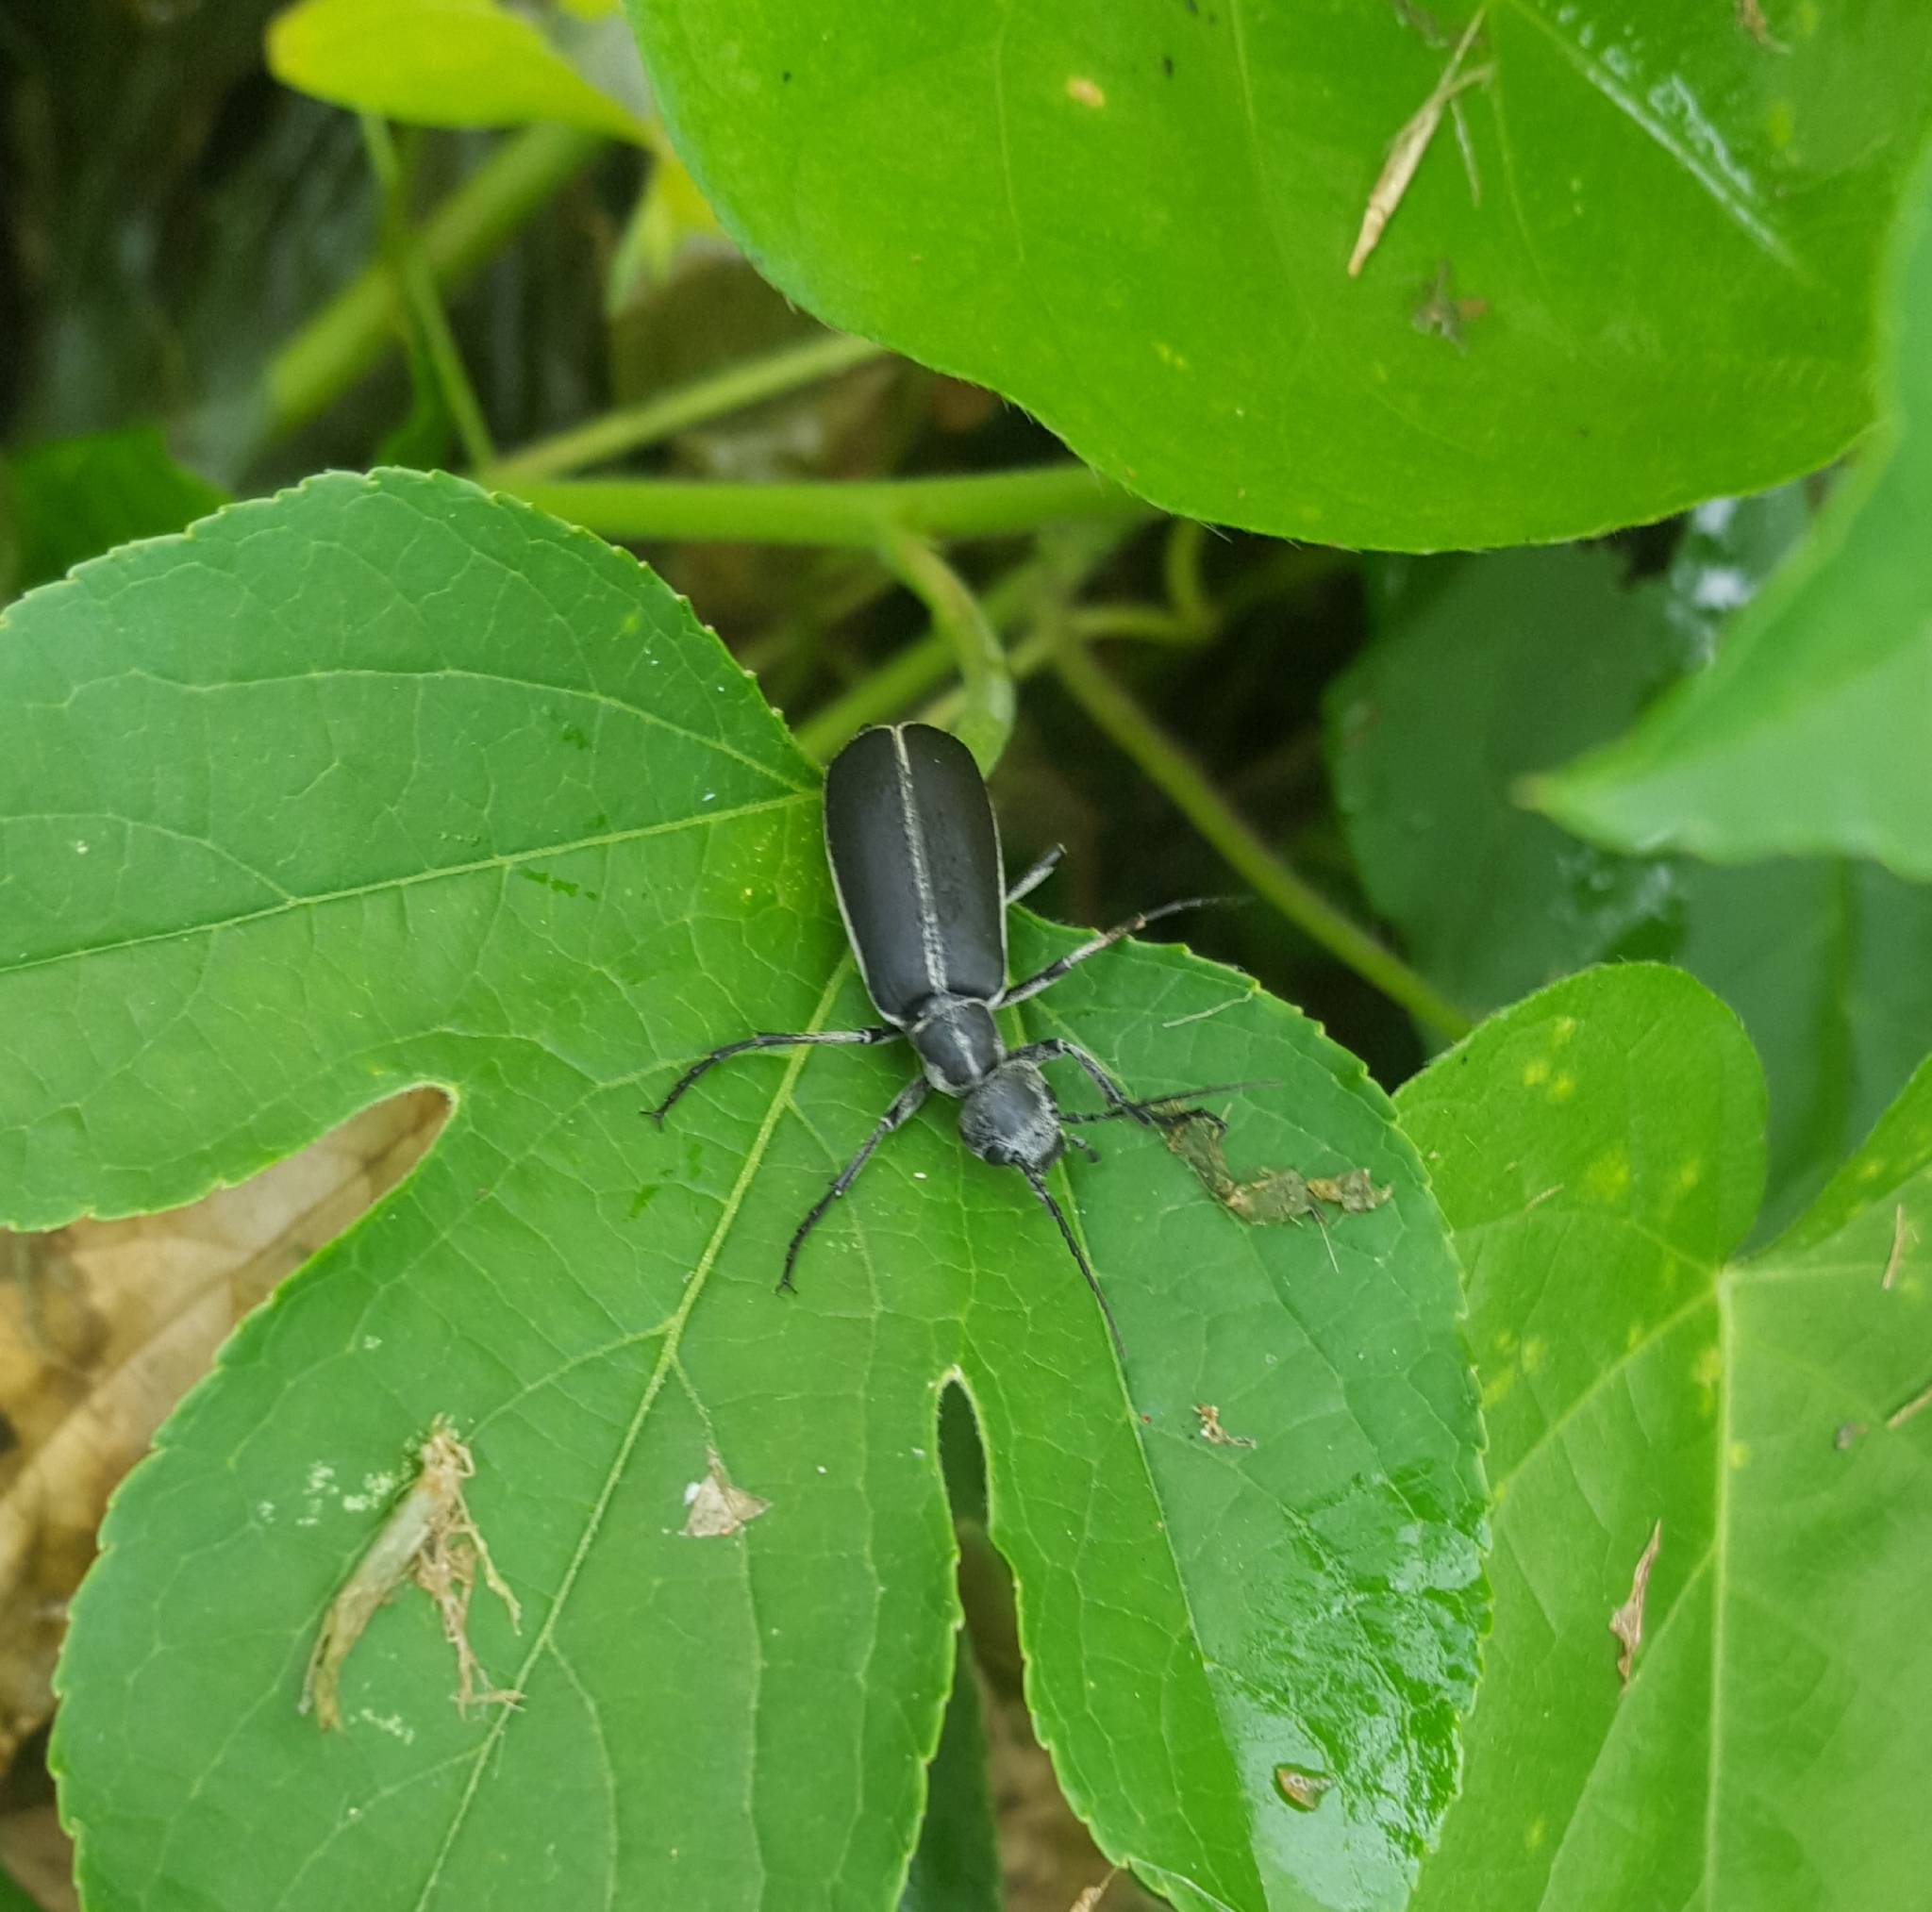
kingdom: Animalia
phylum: Arthropoda
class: Insecta
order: Coleoptera
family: Meloidae
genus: Epicauta
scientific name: Epicauta funebris
